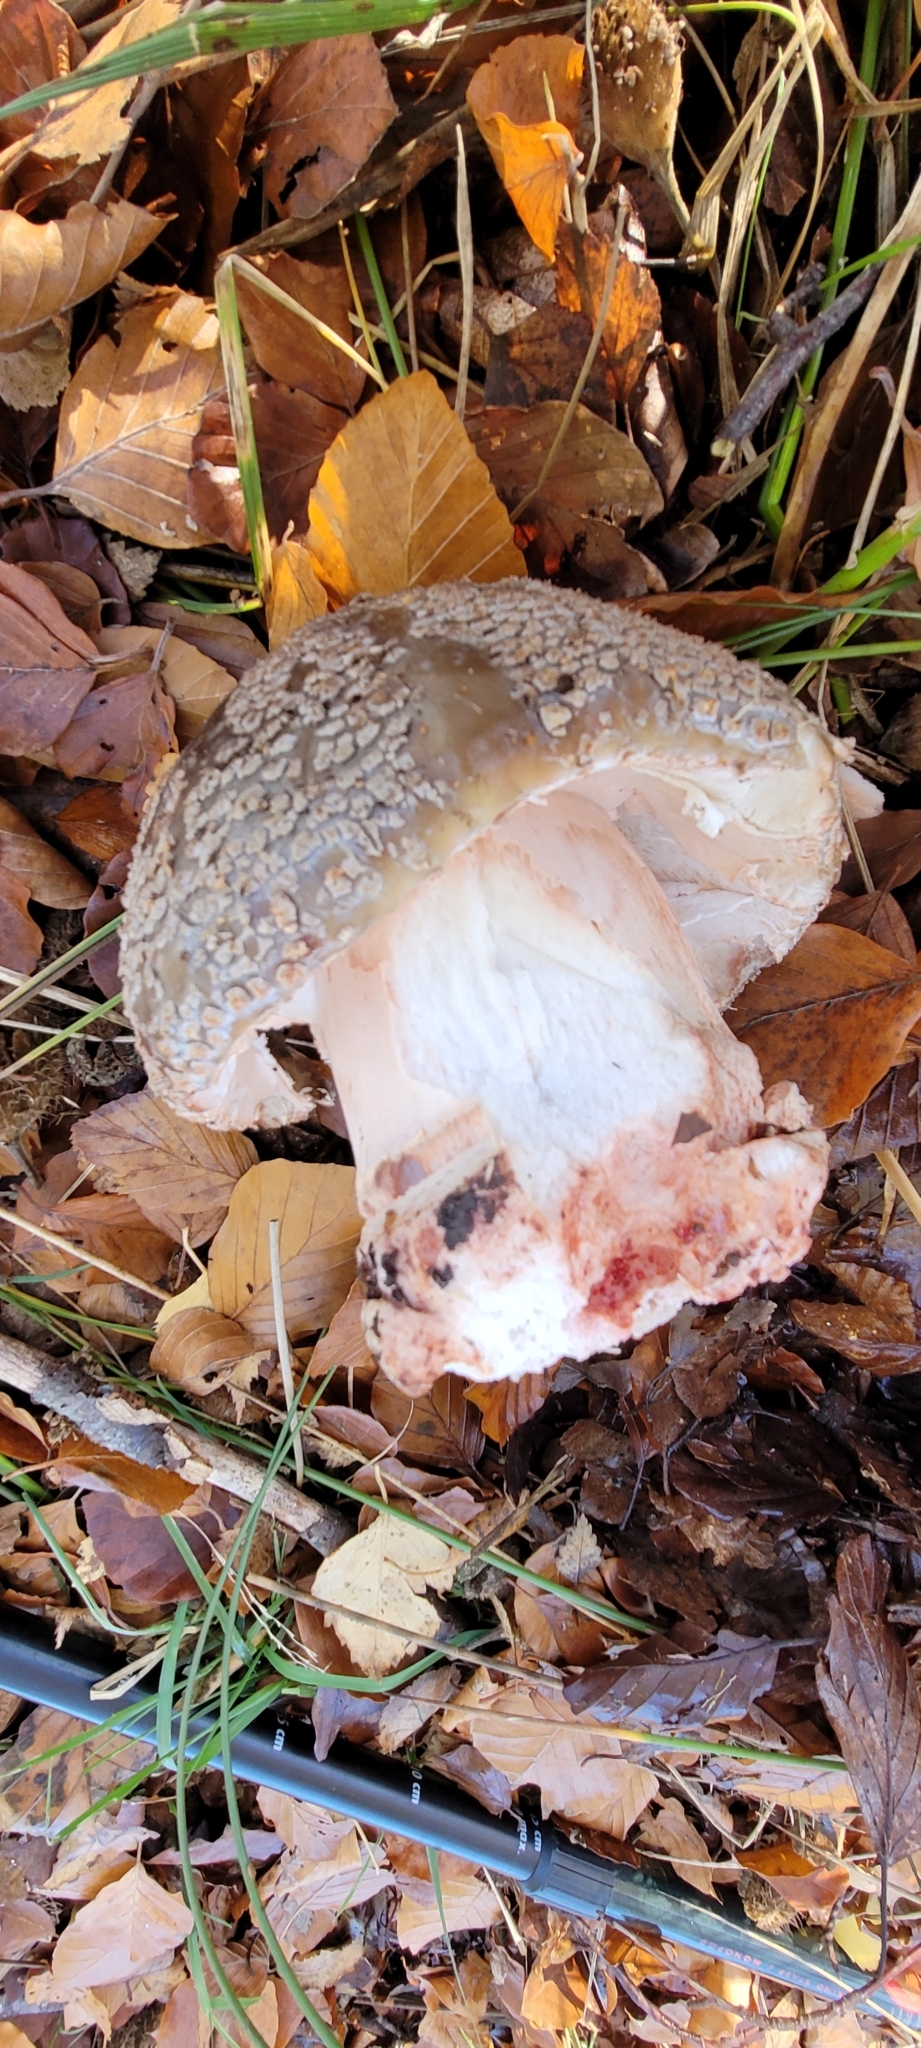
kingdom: Fungi
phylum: Basidiomycota
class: Agaricomycetes
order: Agaricales
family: Amanitaceae
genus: Amanita
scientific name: Amanita rubescens
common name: Blusher
